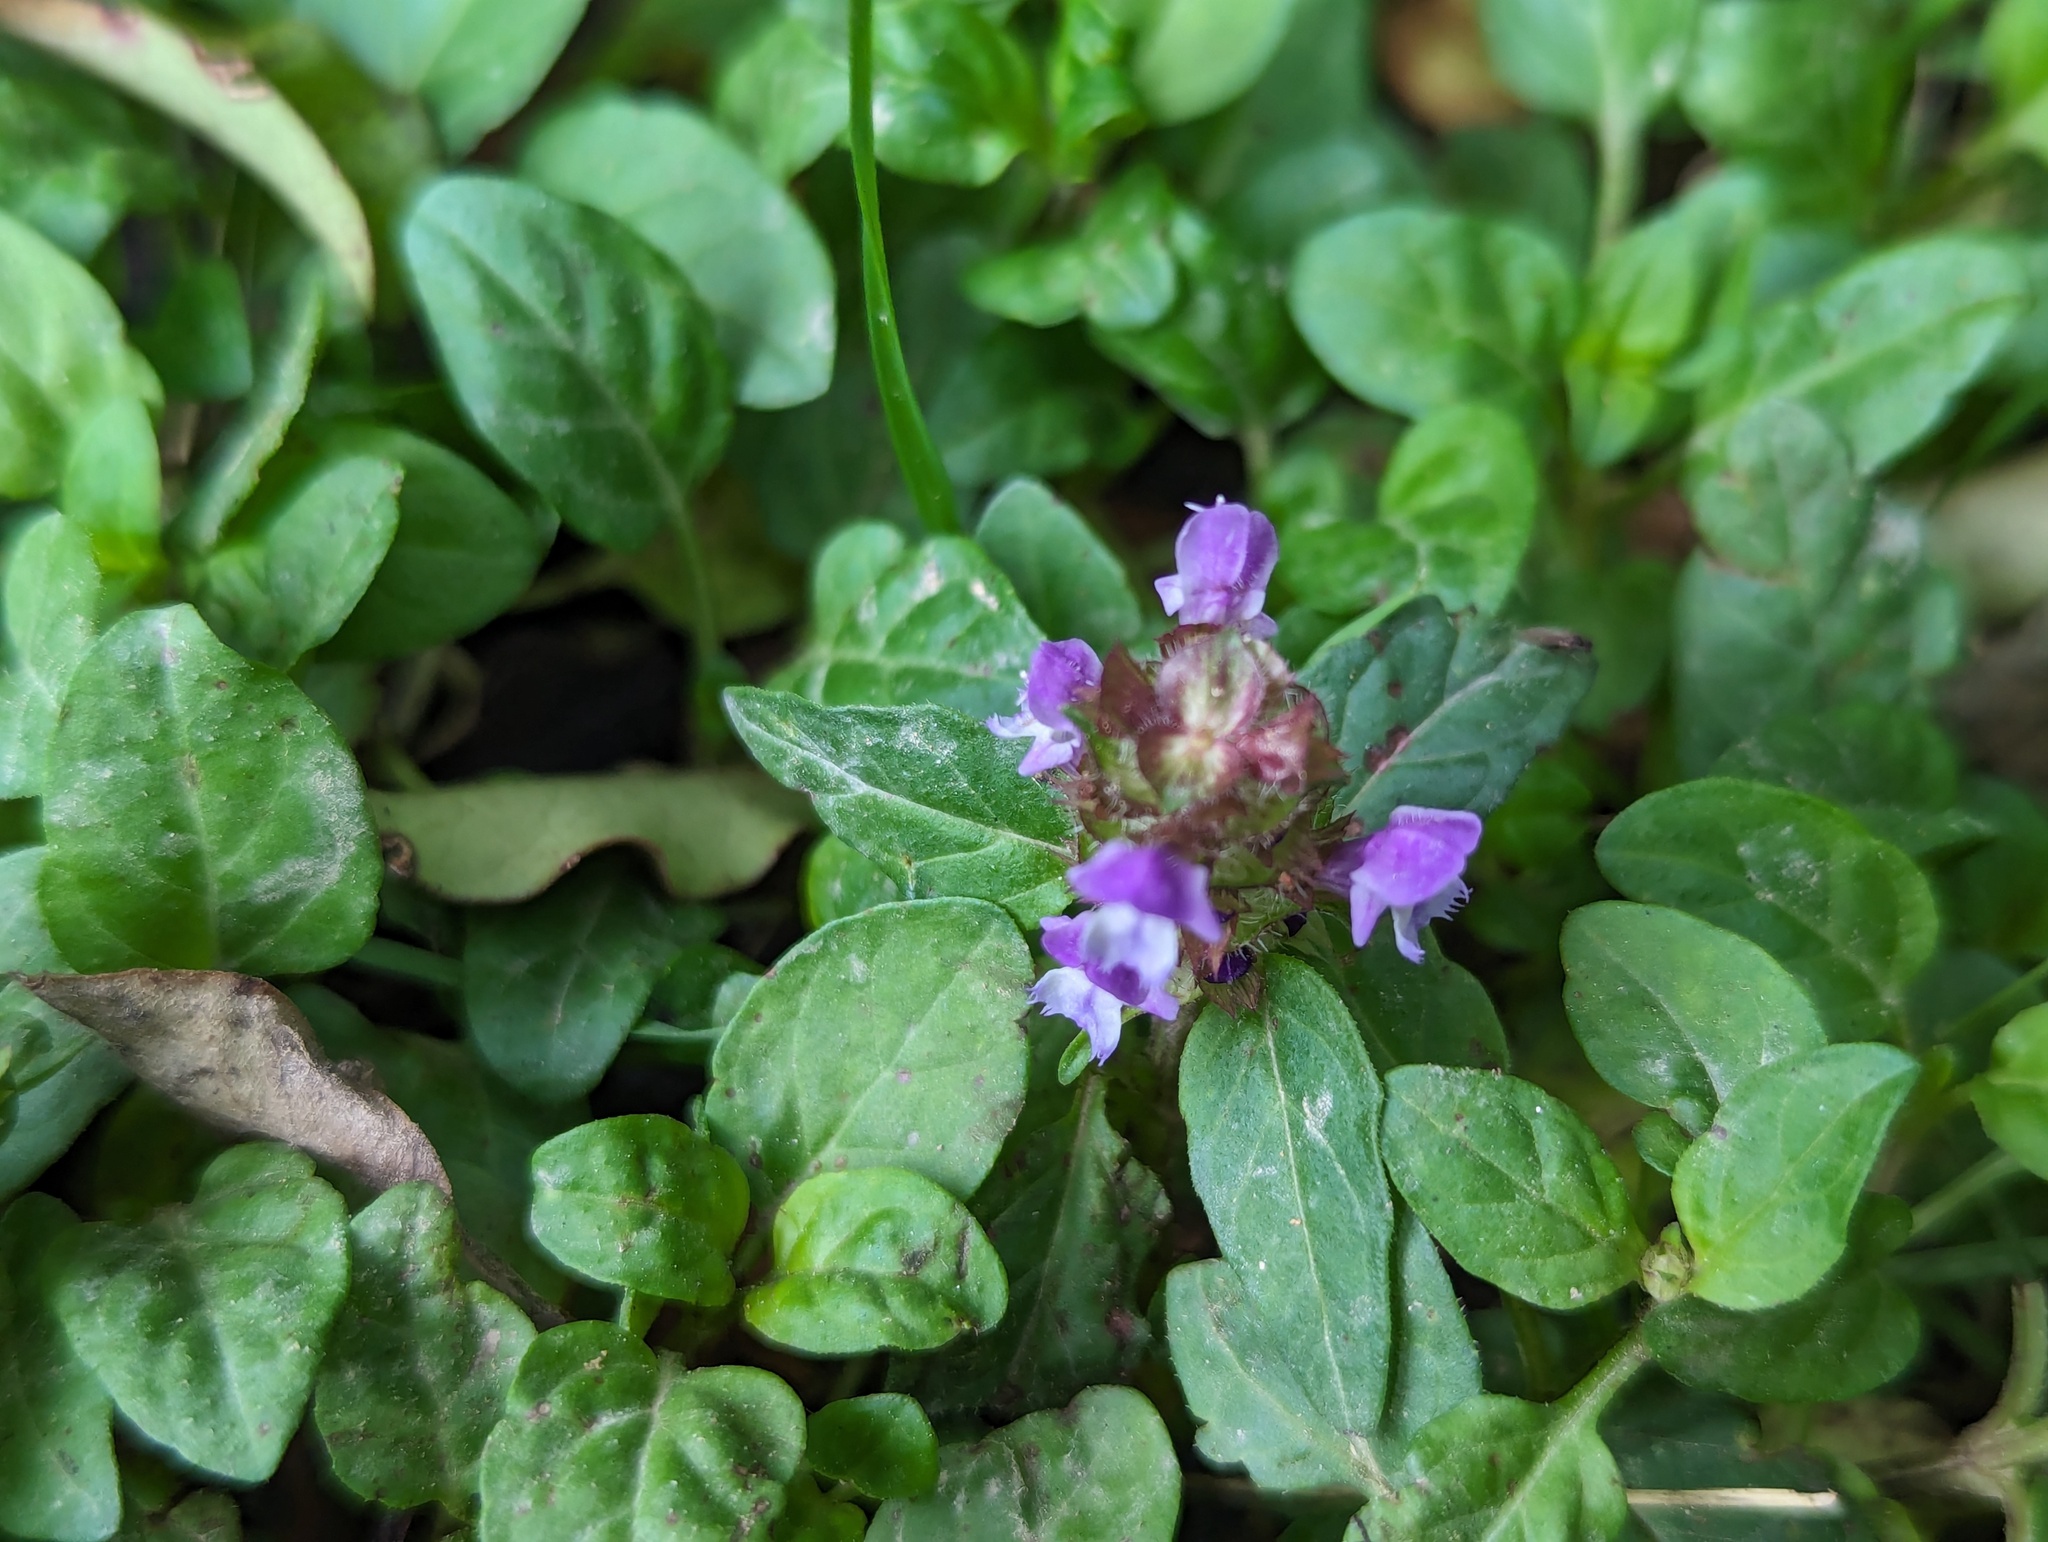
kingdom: Plantae
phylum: Tracheophyta
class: Magnoliopsida
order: Lamiales
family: Lamiaceae
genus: Prunella
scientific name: Prunella vulgaris
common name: Heal-all
